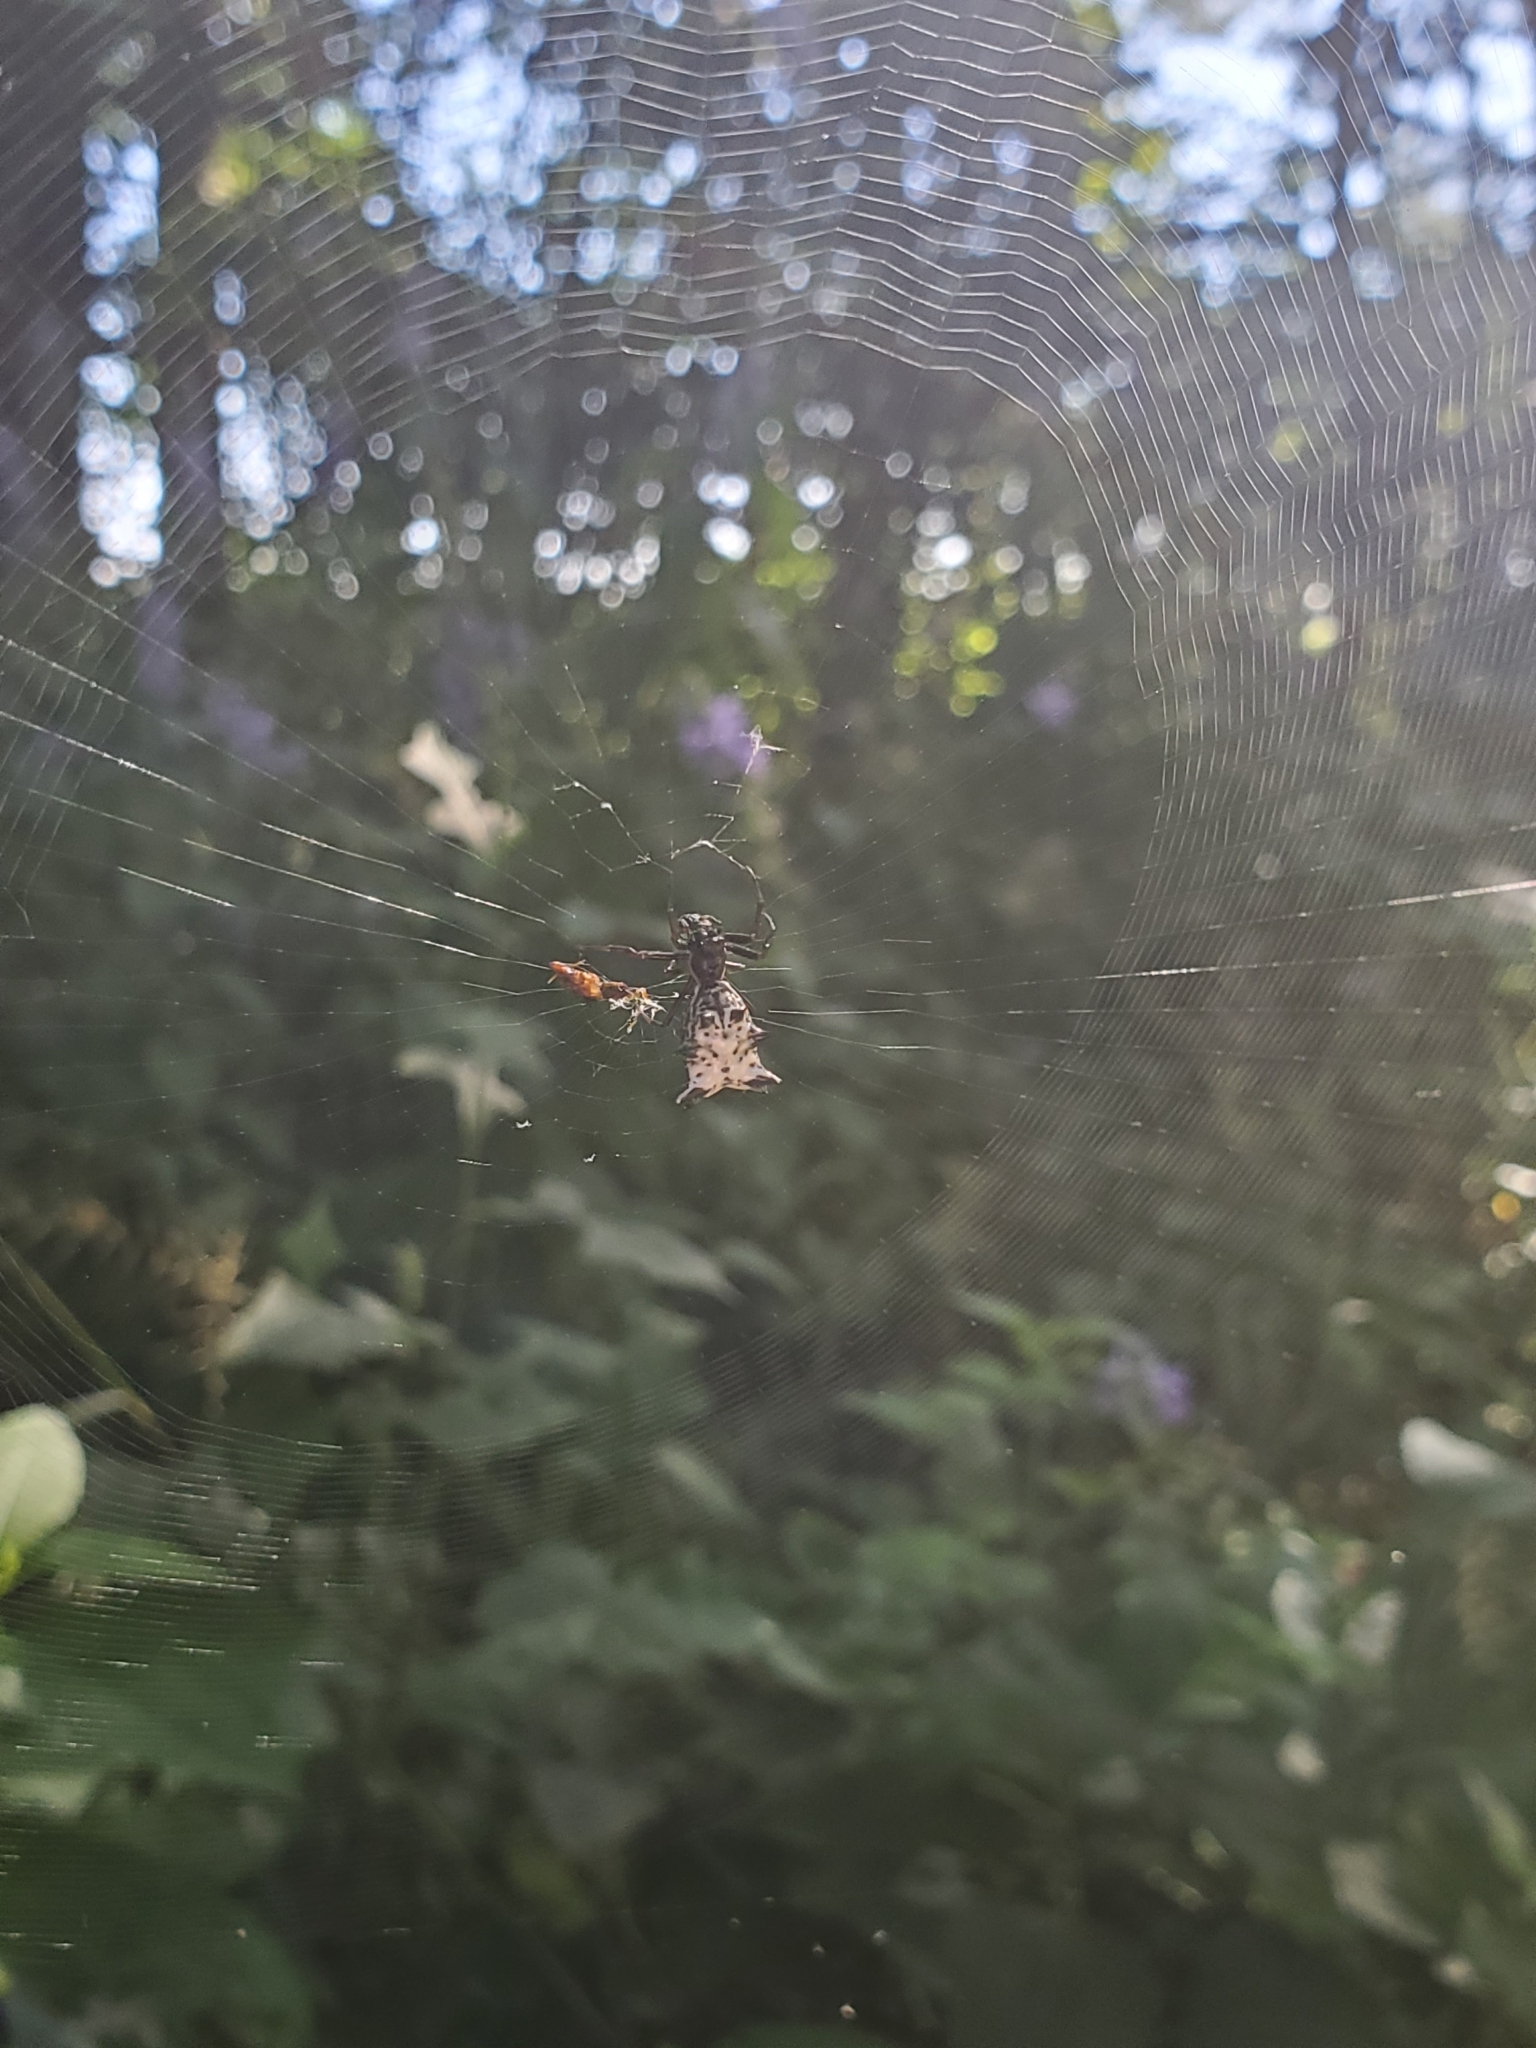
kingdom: Animalia
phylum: Arthropoda
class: Arachnida
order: Araneae
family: Araneidae
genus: Micrathena
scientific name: Micrathena gracilis
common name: Orb weavers
